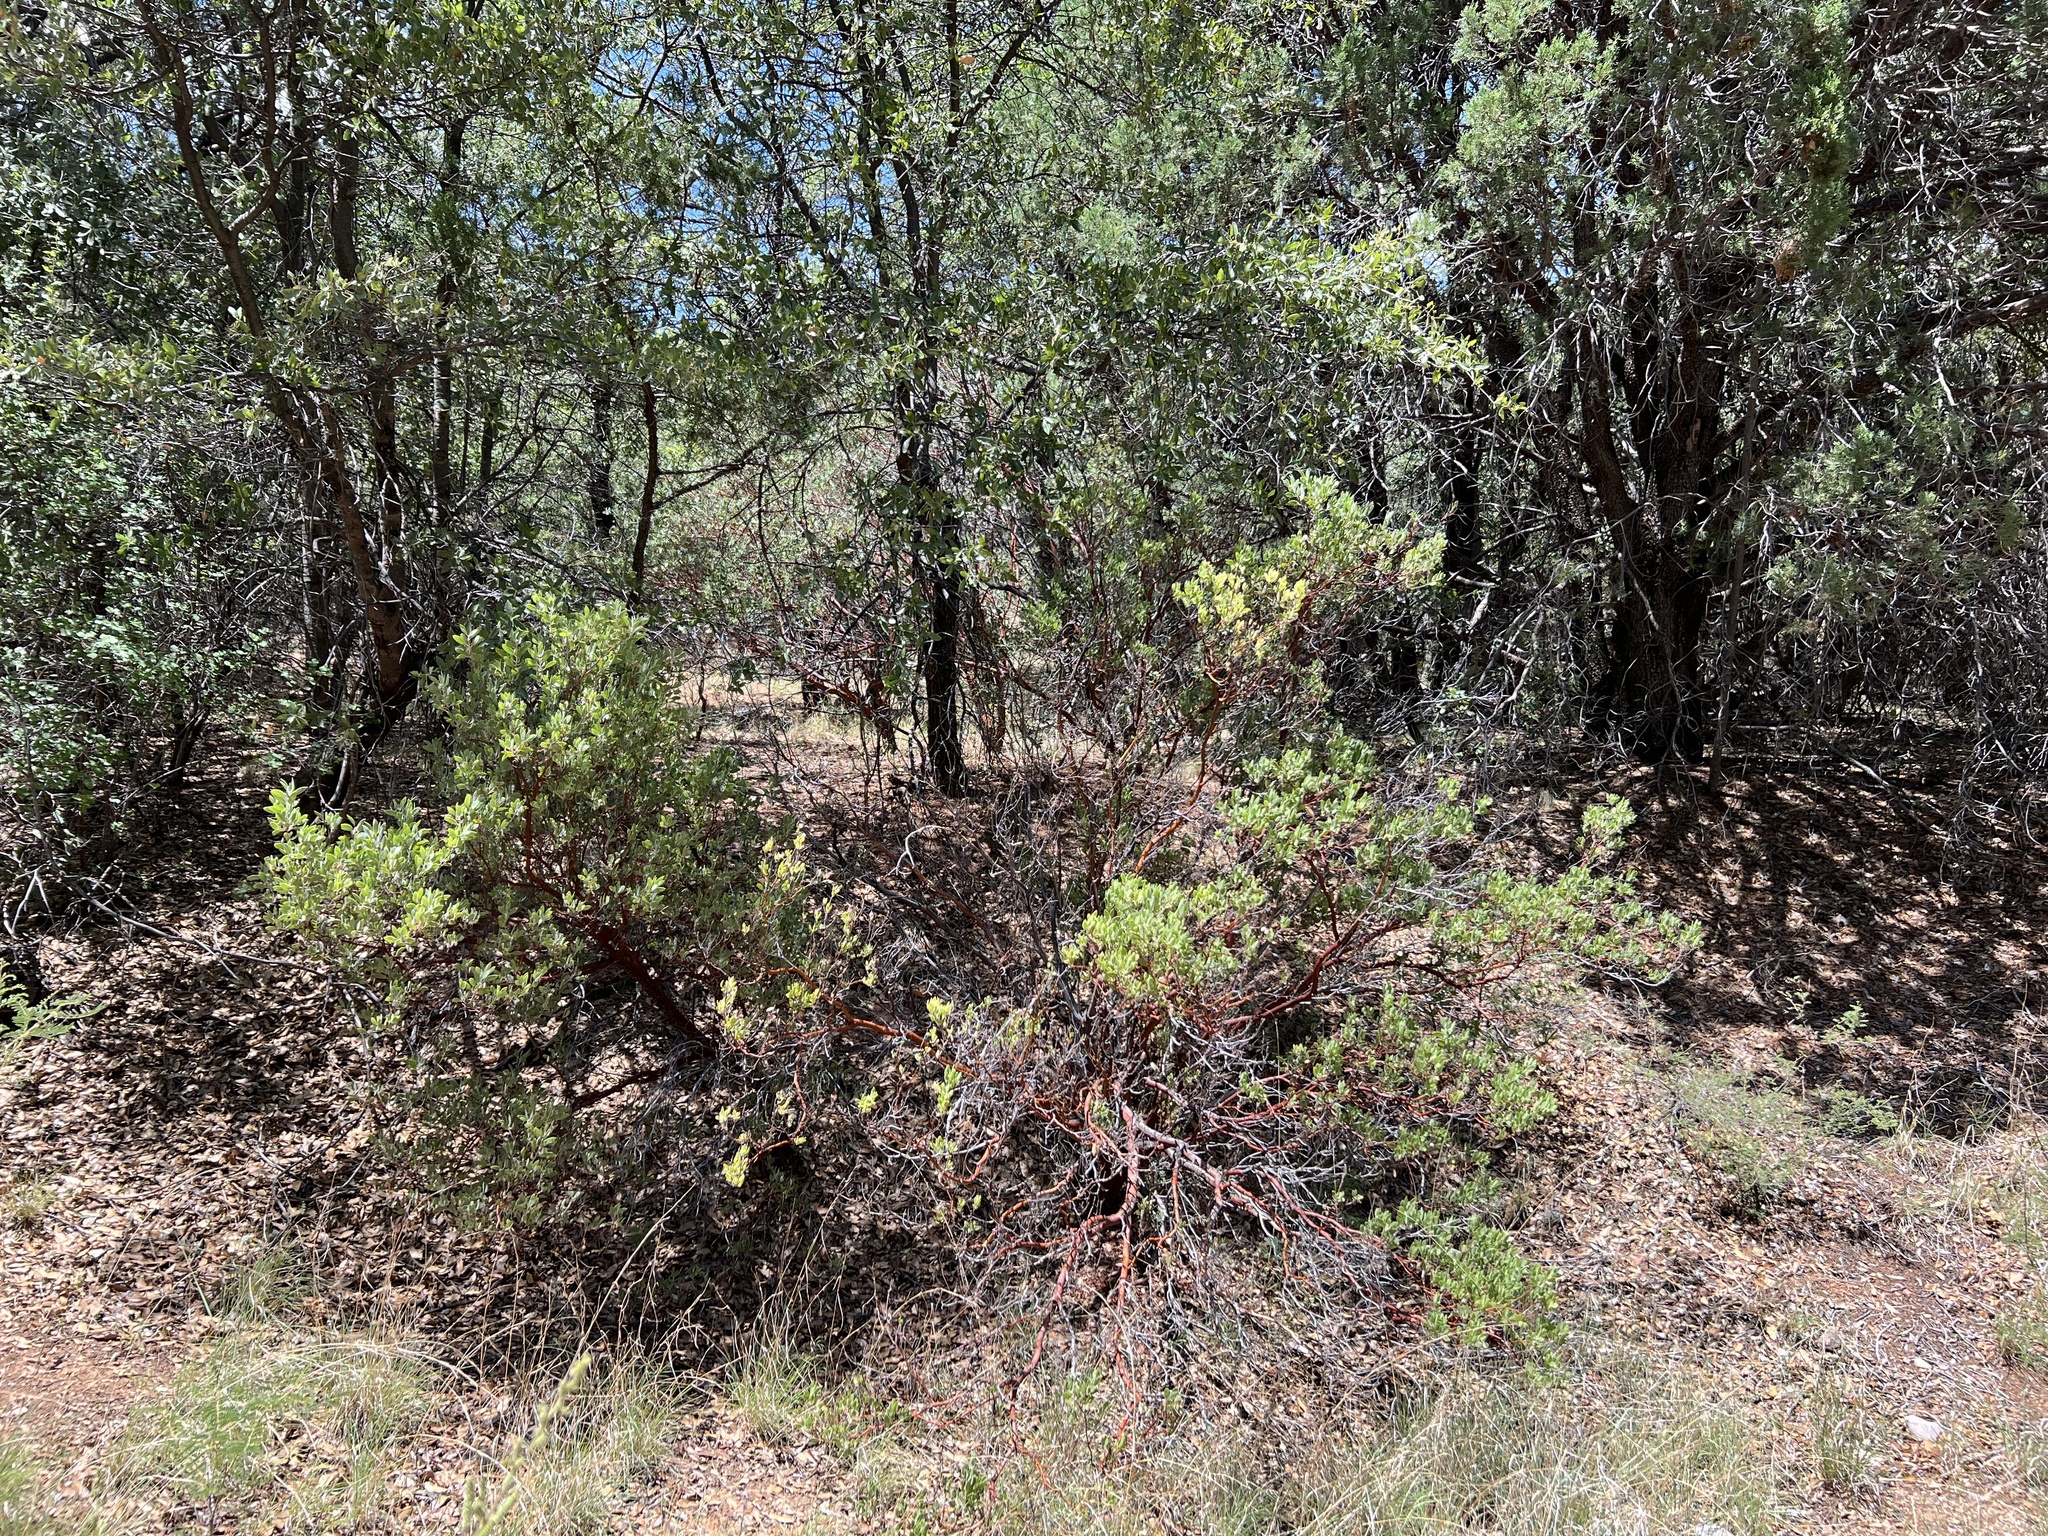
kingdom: Plantae
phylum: Tracheophyta
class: Magnoliopsida
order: Ericales
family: Ericaceae
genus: Arctostaphylos
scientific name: Arctostaphylos pungens
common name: Mexican manzanita
